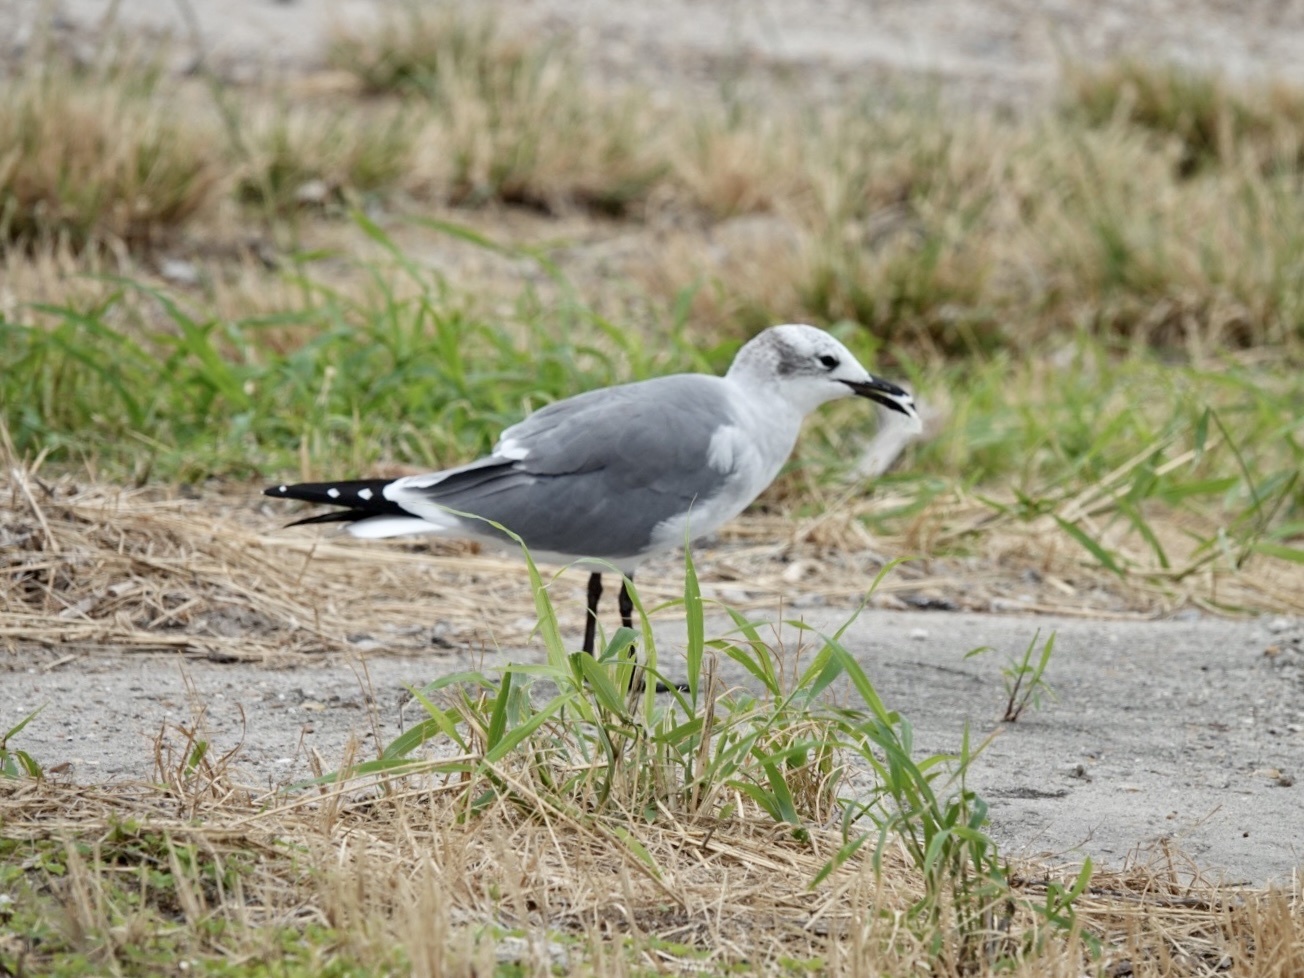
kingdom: Animalia
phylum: Chordata
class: Aves
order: Charadriiformes
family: Laridae
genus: Leucophaeus
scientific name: Leucophaeus atricilla
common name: Laughing gull
